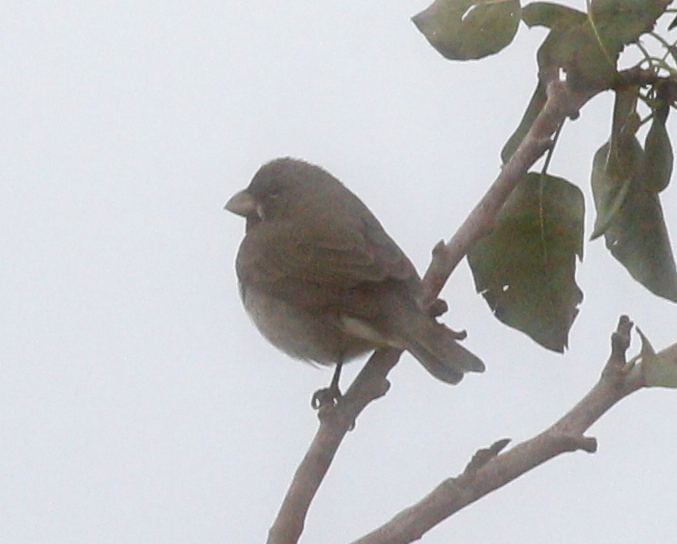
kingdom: Animalia
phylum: Chordata
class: Aves
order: Passeriformes
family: Thraupidae
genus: Sporophila
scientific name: Sporophila caerulescens
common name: Double-collared seedeater
